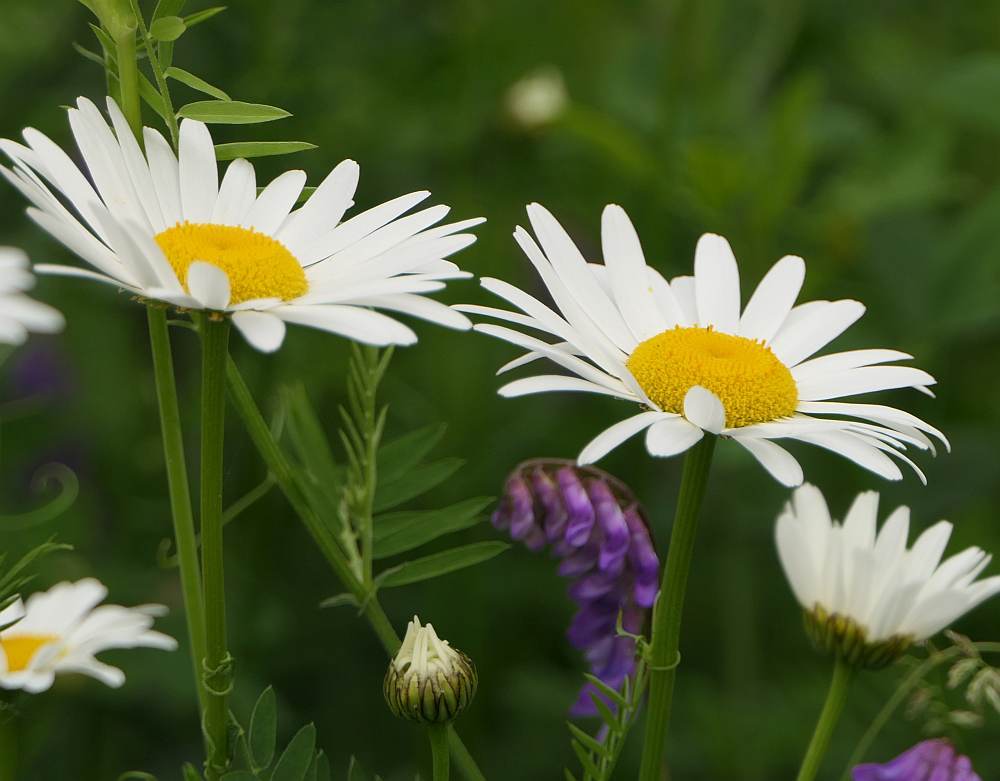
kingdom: Plantae
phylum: Tracheophyta
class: Magnoliopsida
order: Asterales
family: Asteraceae
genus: Leucanthemum
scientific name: Leucanthemum vulgare
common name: Oxeye daisy
